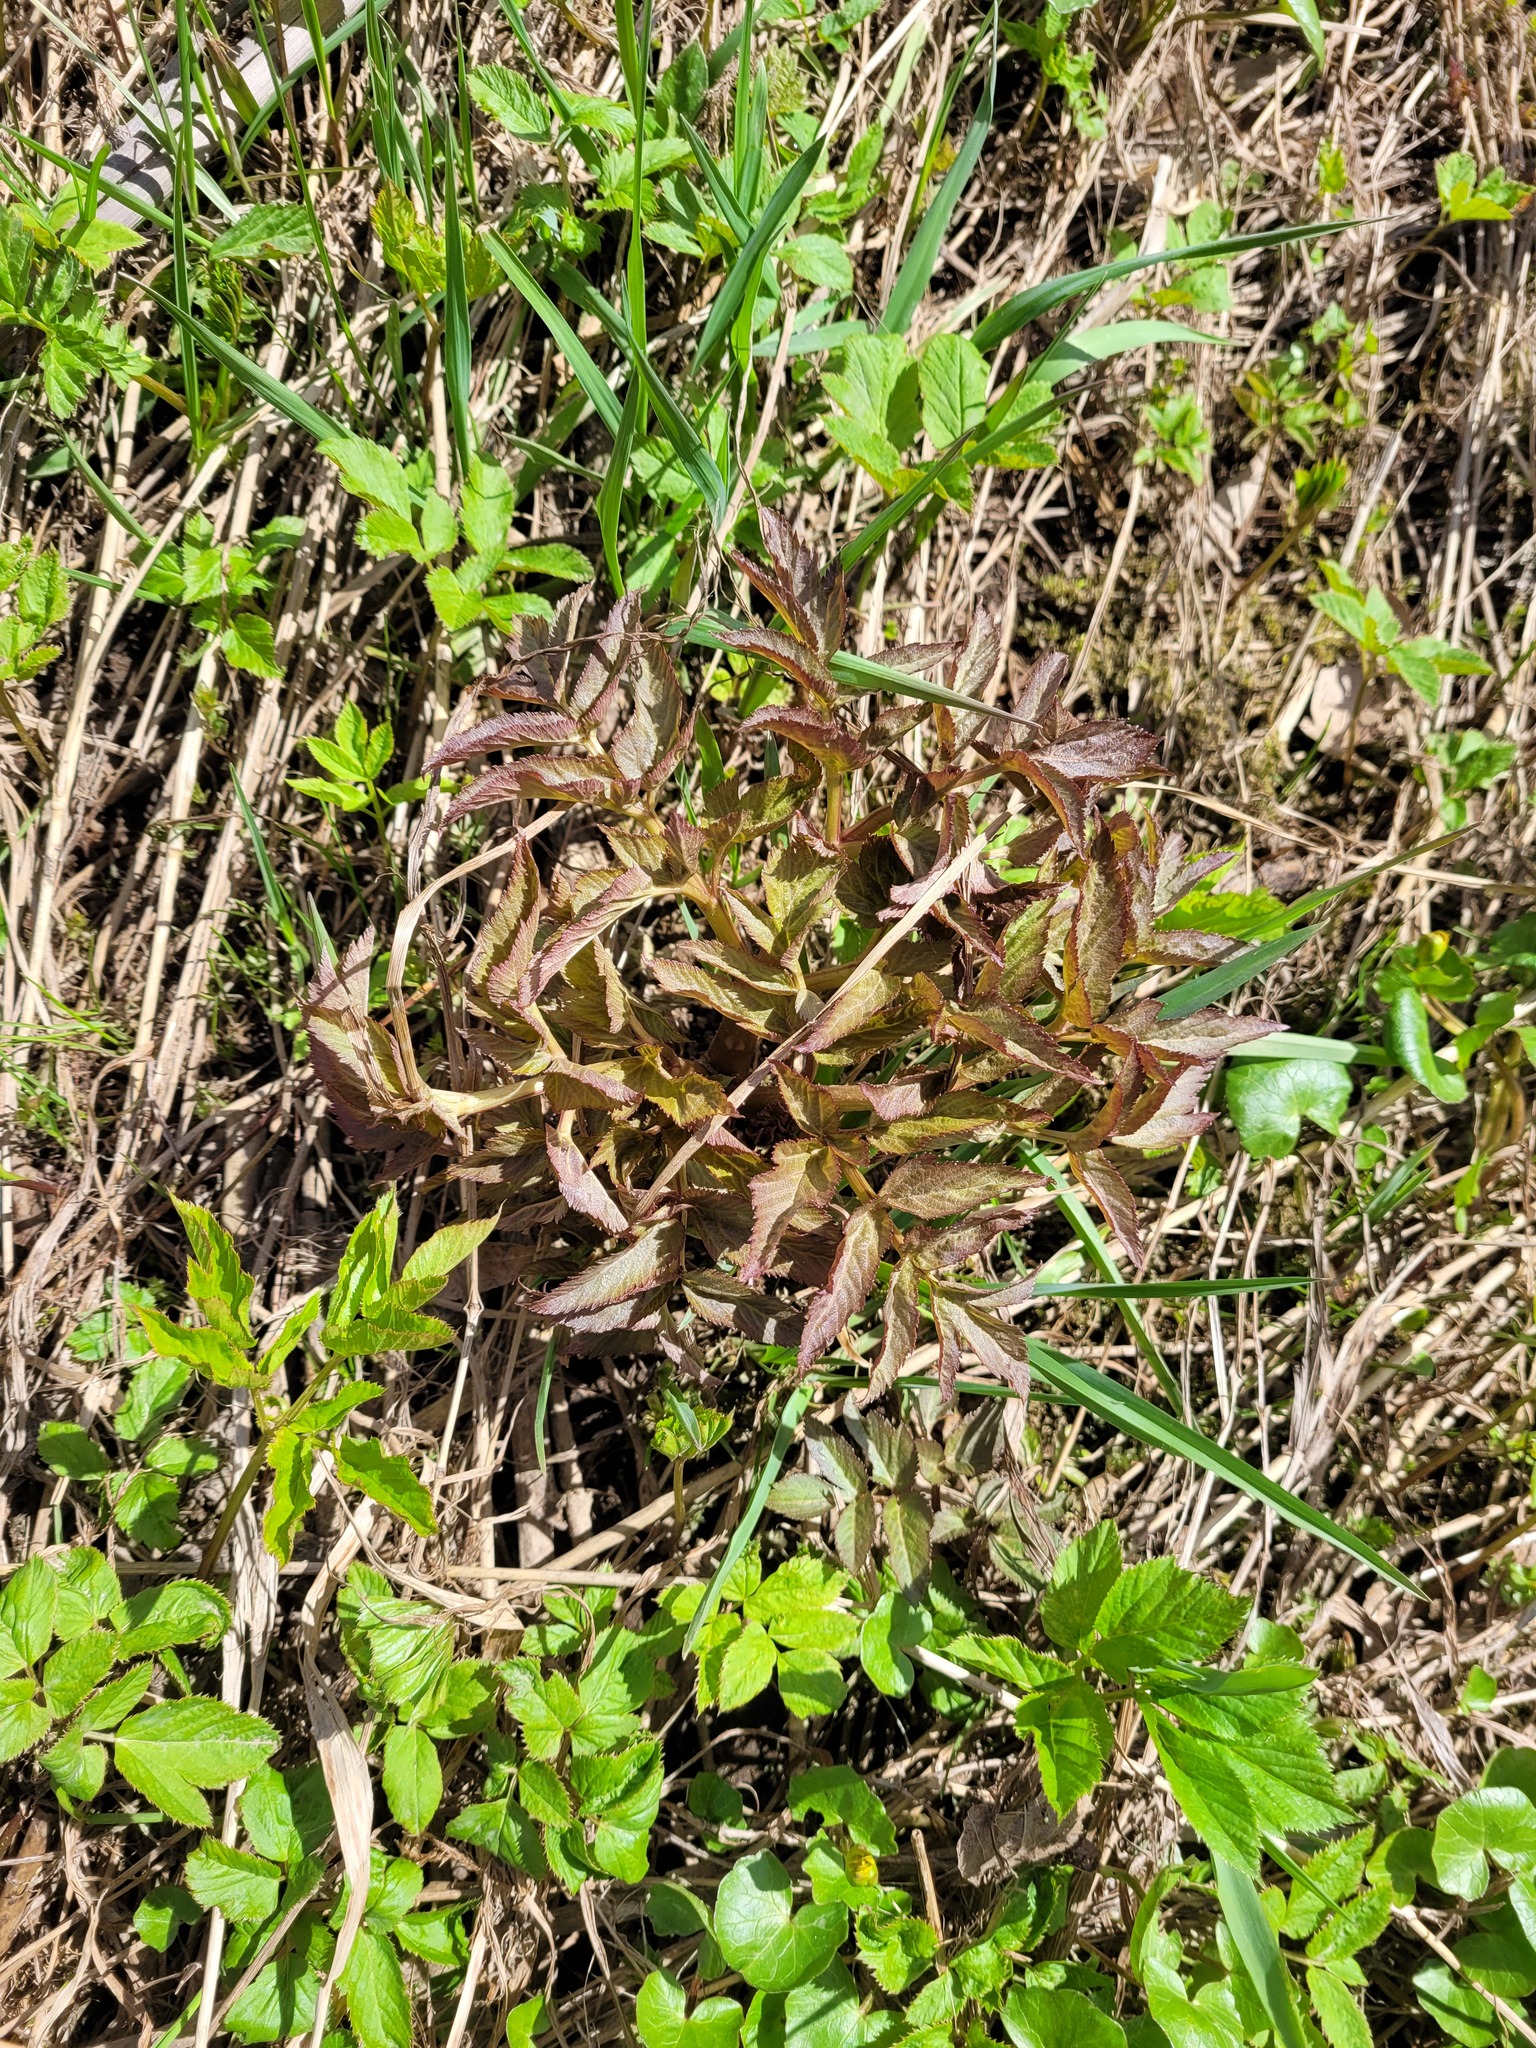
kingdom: Plantae
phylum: Tracheophyta
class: Magnoliopsida
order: Apiales
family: Apiaceae
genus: Angelica
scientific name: Angelica archangelica
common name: Garden angelica
